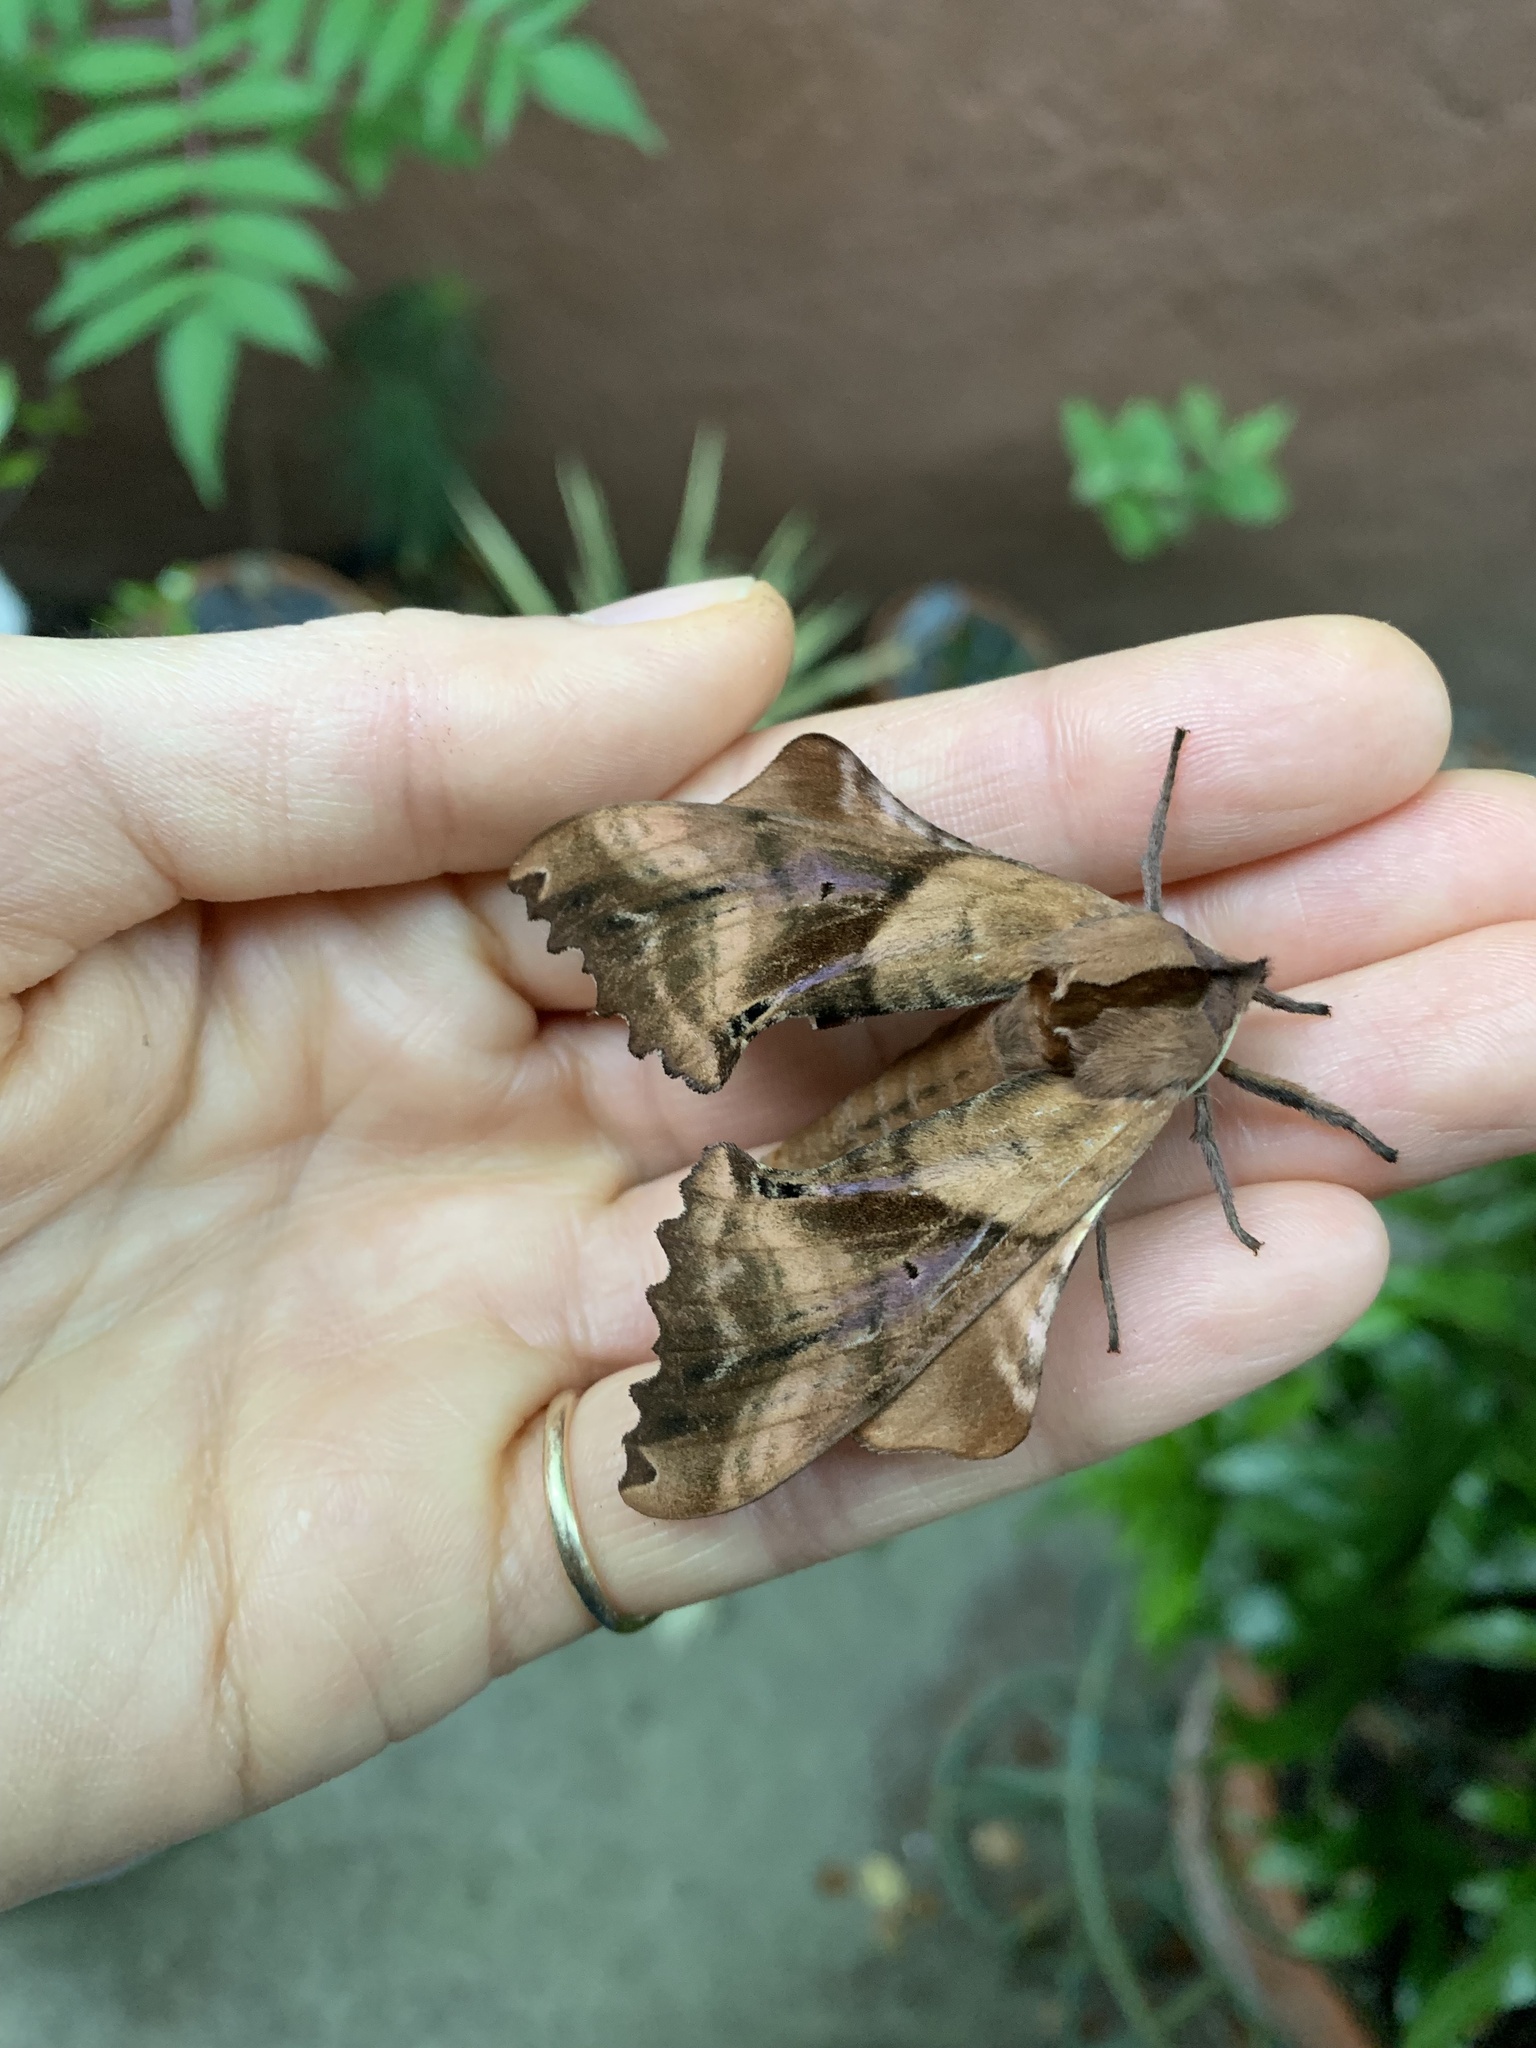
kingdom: Animalia
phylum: Arthropoda
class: Insecta
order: Lepidoptera
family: Sphingidae
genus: Paonias
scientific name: Paonias excaecata
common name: Blind-eyed sphinx
